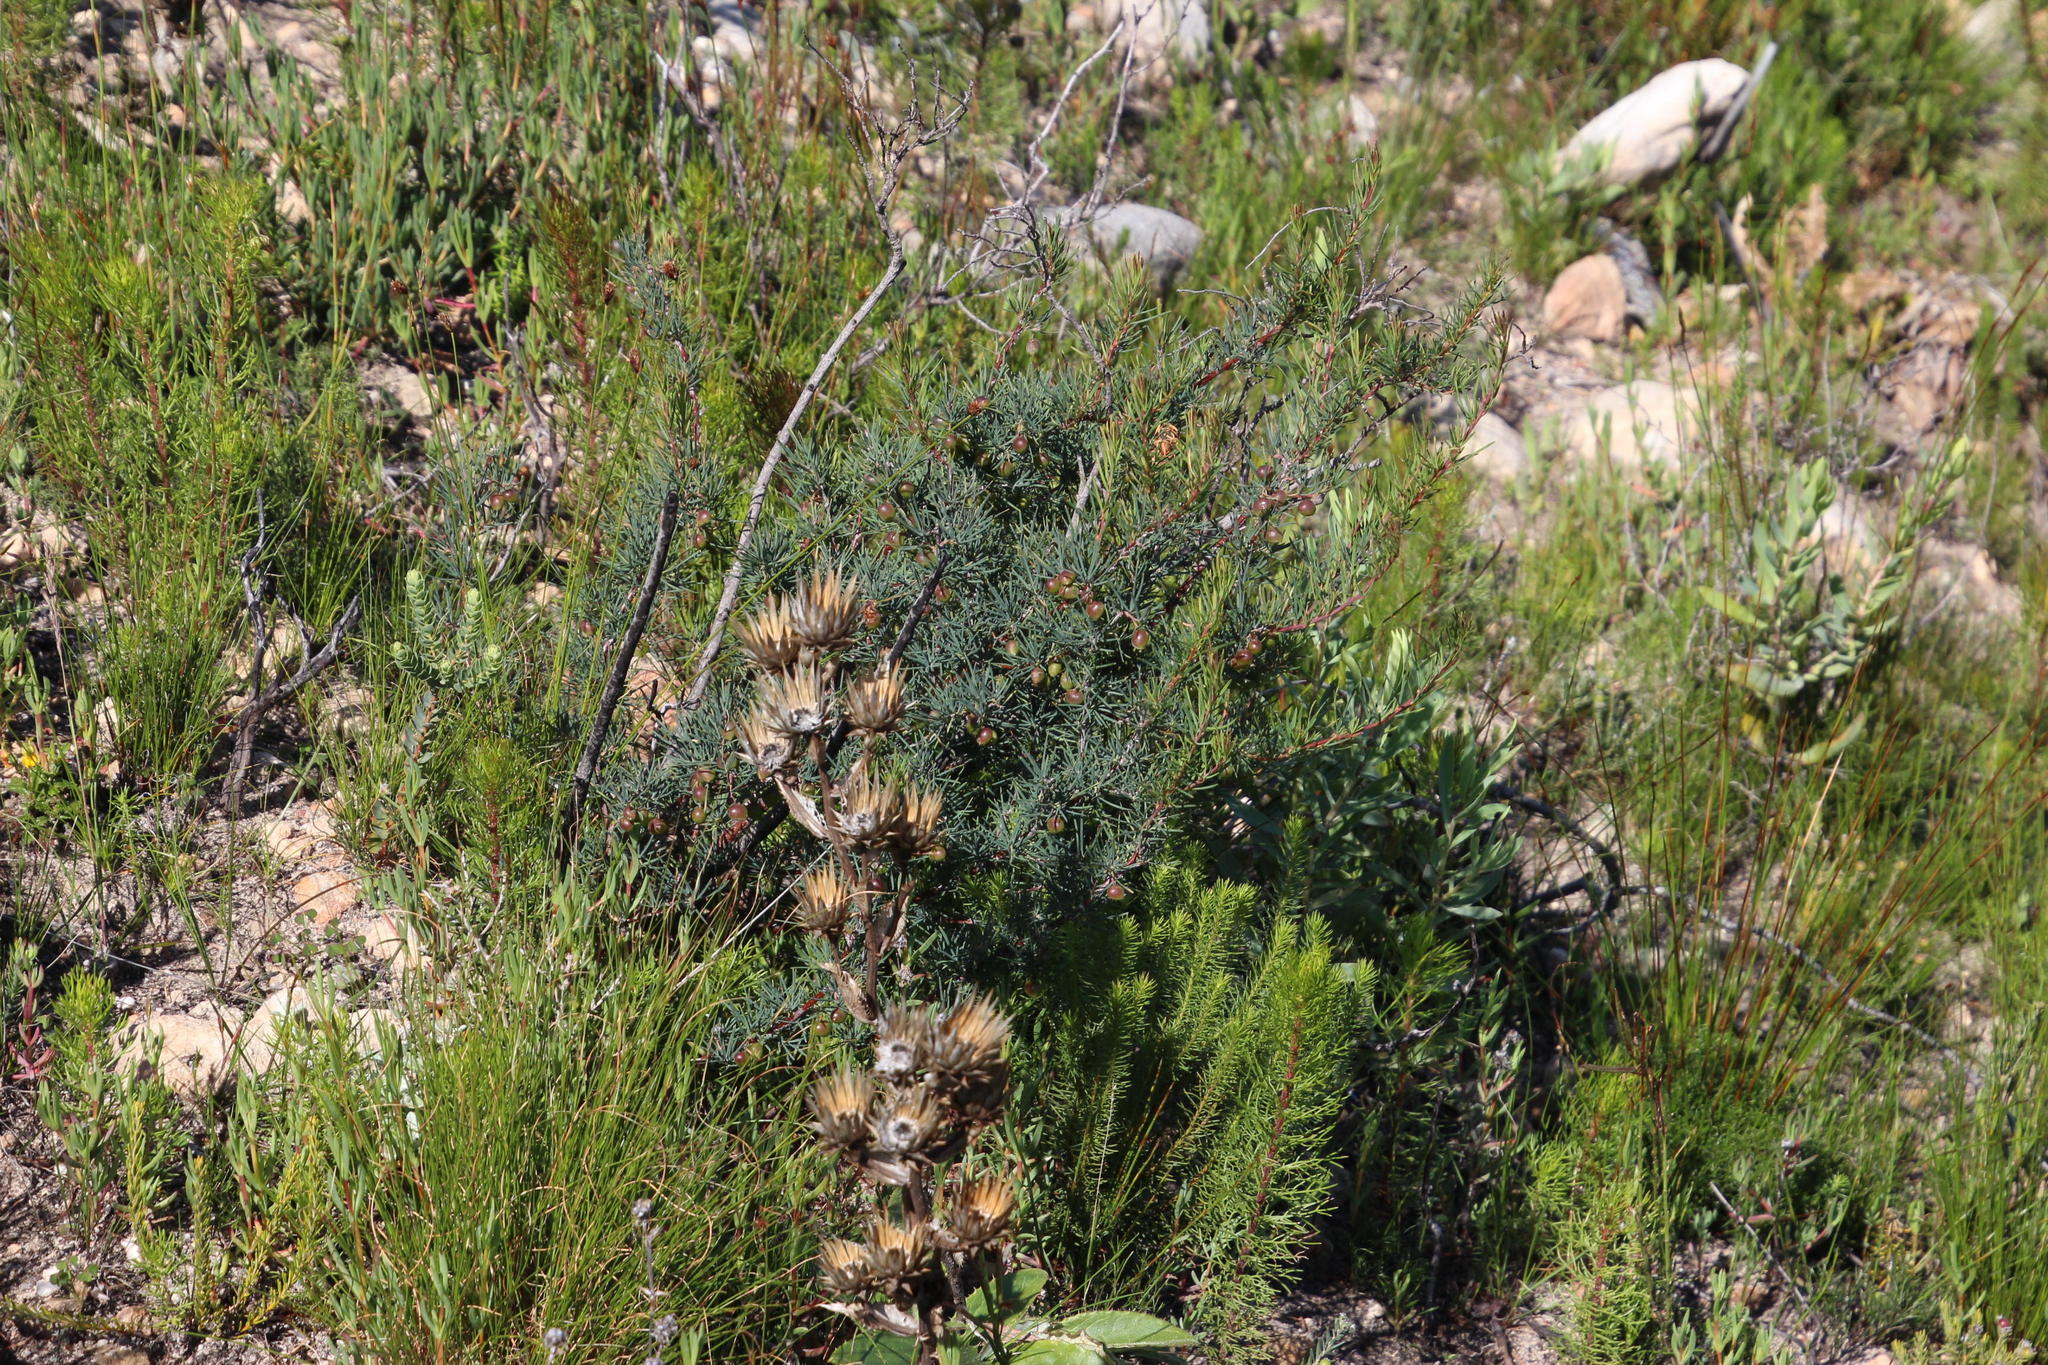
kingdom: Plantae
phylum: Tracheophyta
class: Magnoliopsida
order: Sapindales
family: Anacardiaceae
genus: Searsia
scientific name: Searsia rosmarinifolia
